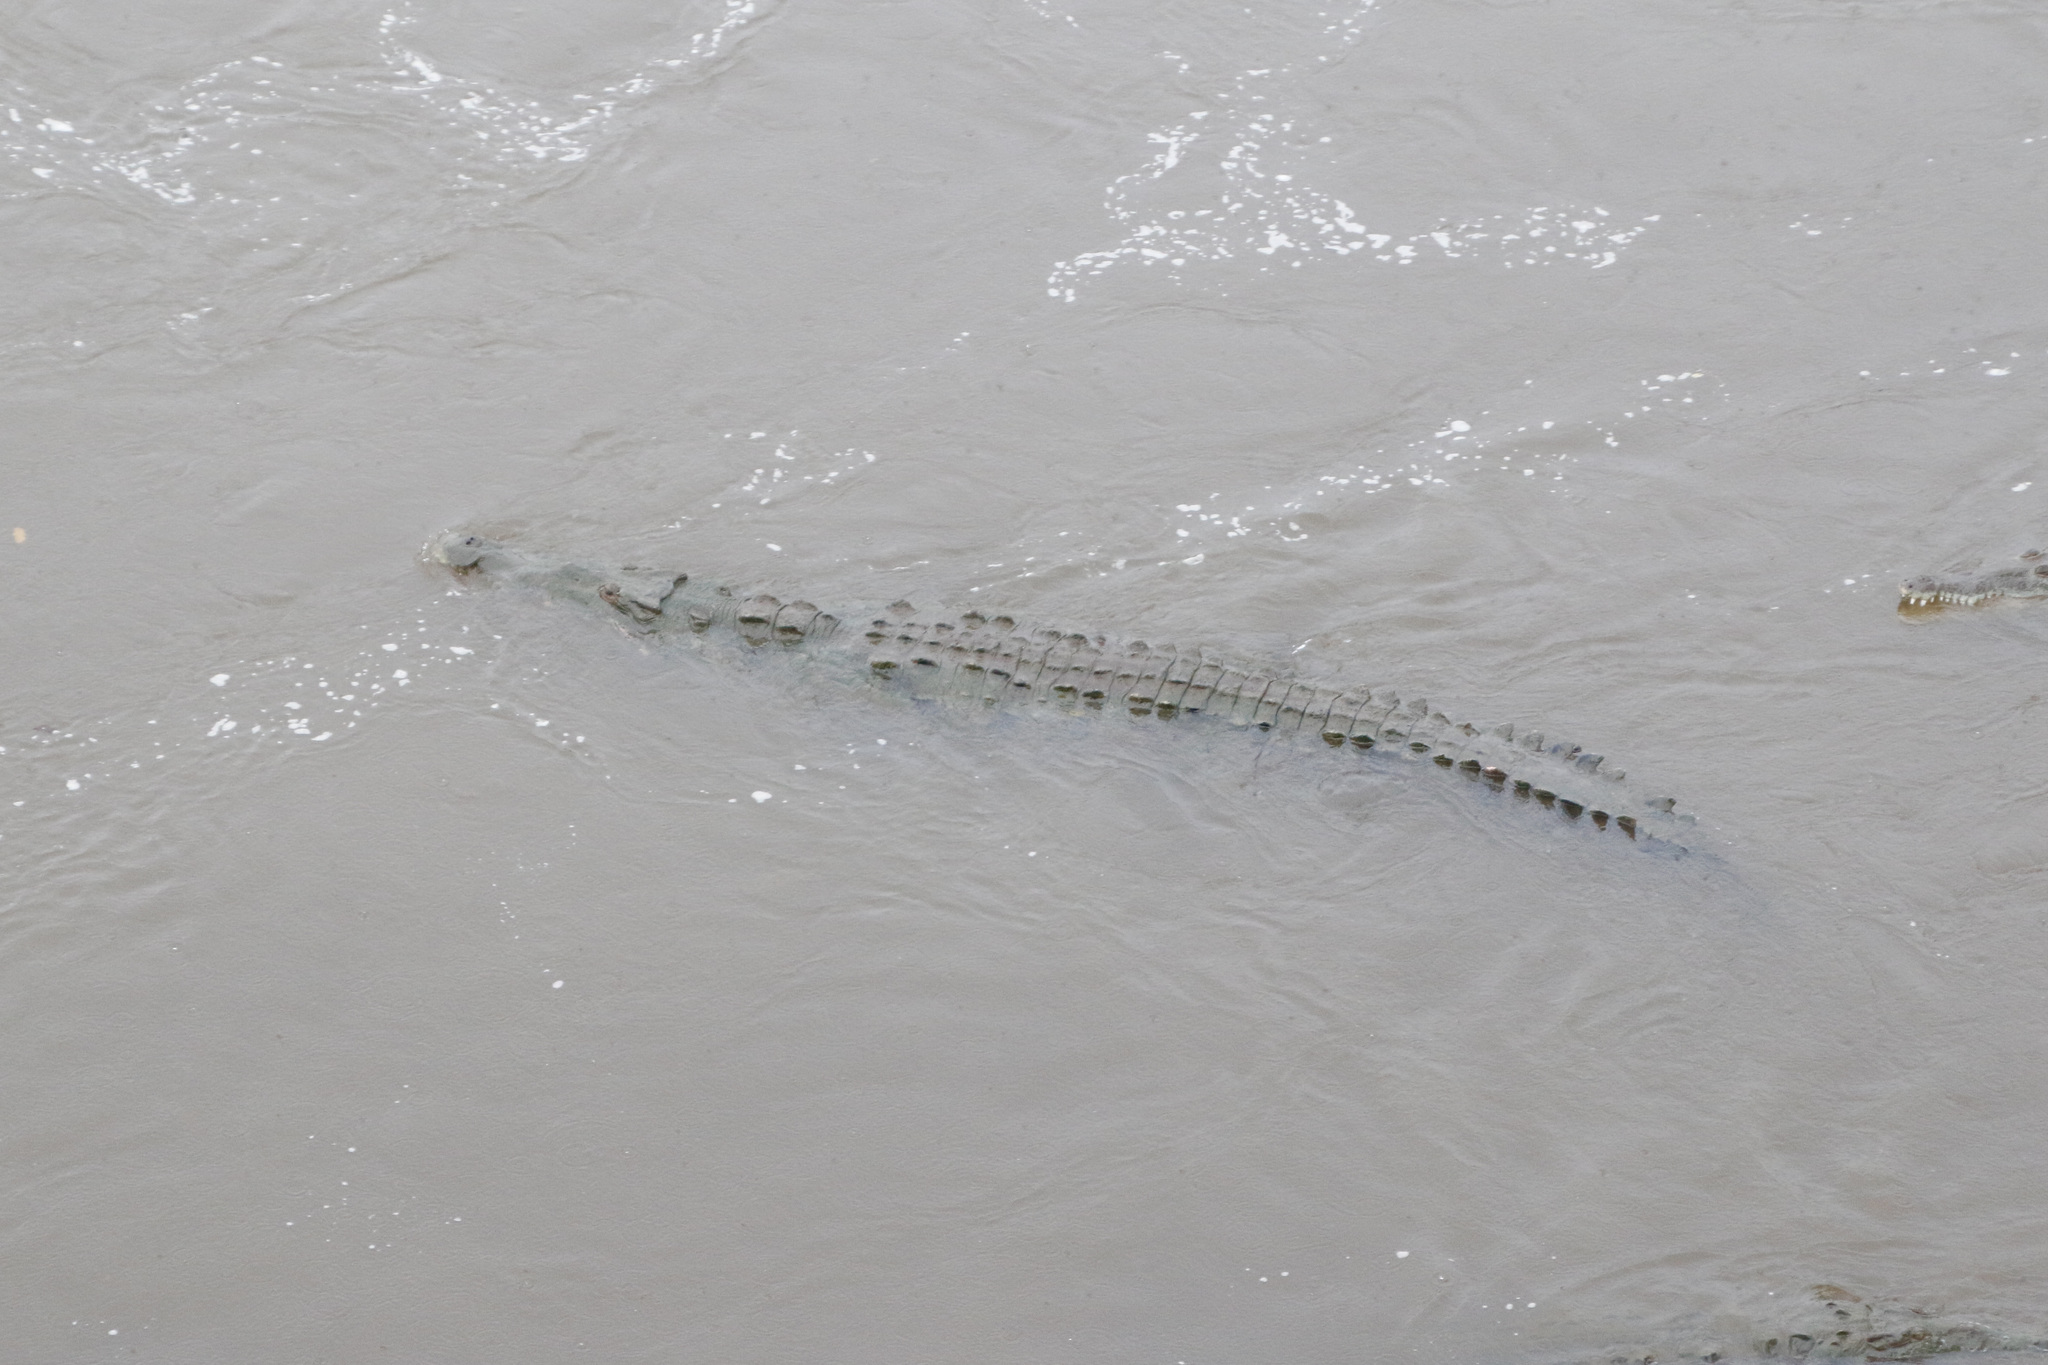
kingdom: Animalia
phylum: Chordata
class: Crocodylia
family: Crocodylidae
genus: Crocodylus
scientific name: Crocodylus acutus
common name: American crocodile
